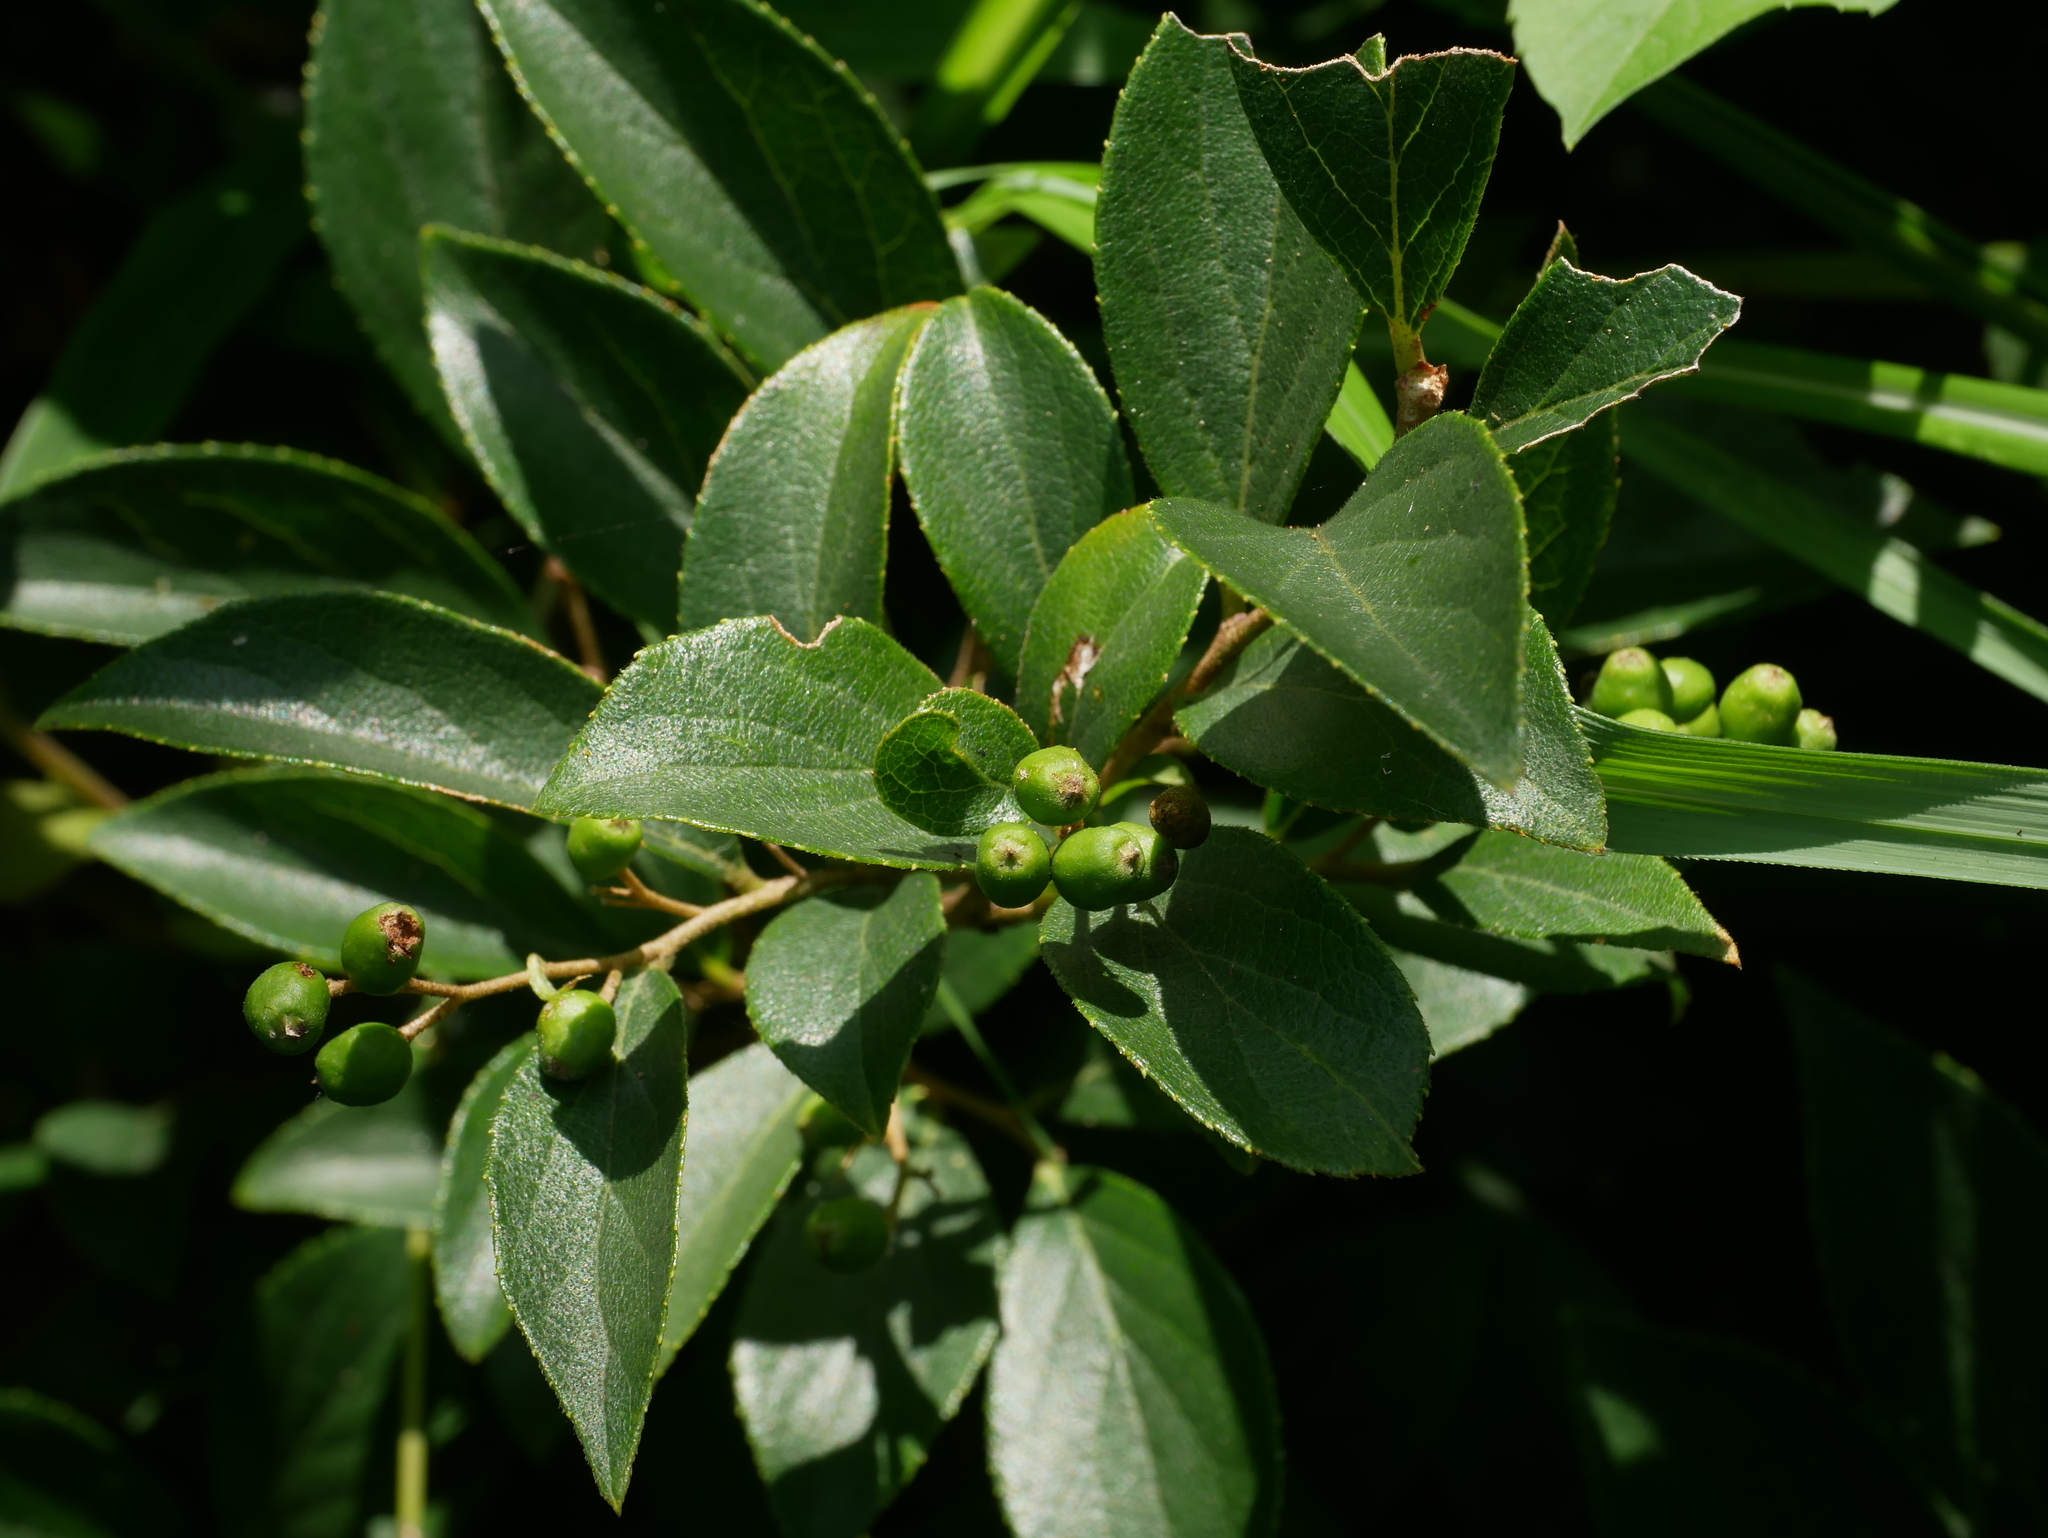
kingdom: Plantae
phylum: Tracheophyta
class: Magnoliopsida
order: Ericales
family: Symplocaceae
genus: Symplocos
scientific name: Symplocos paniculata
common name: Sapphire-berry
